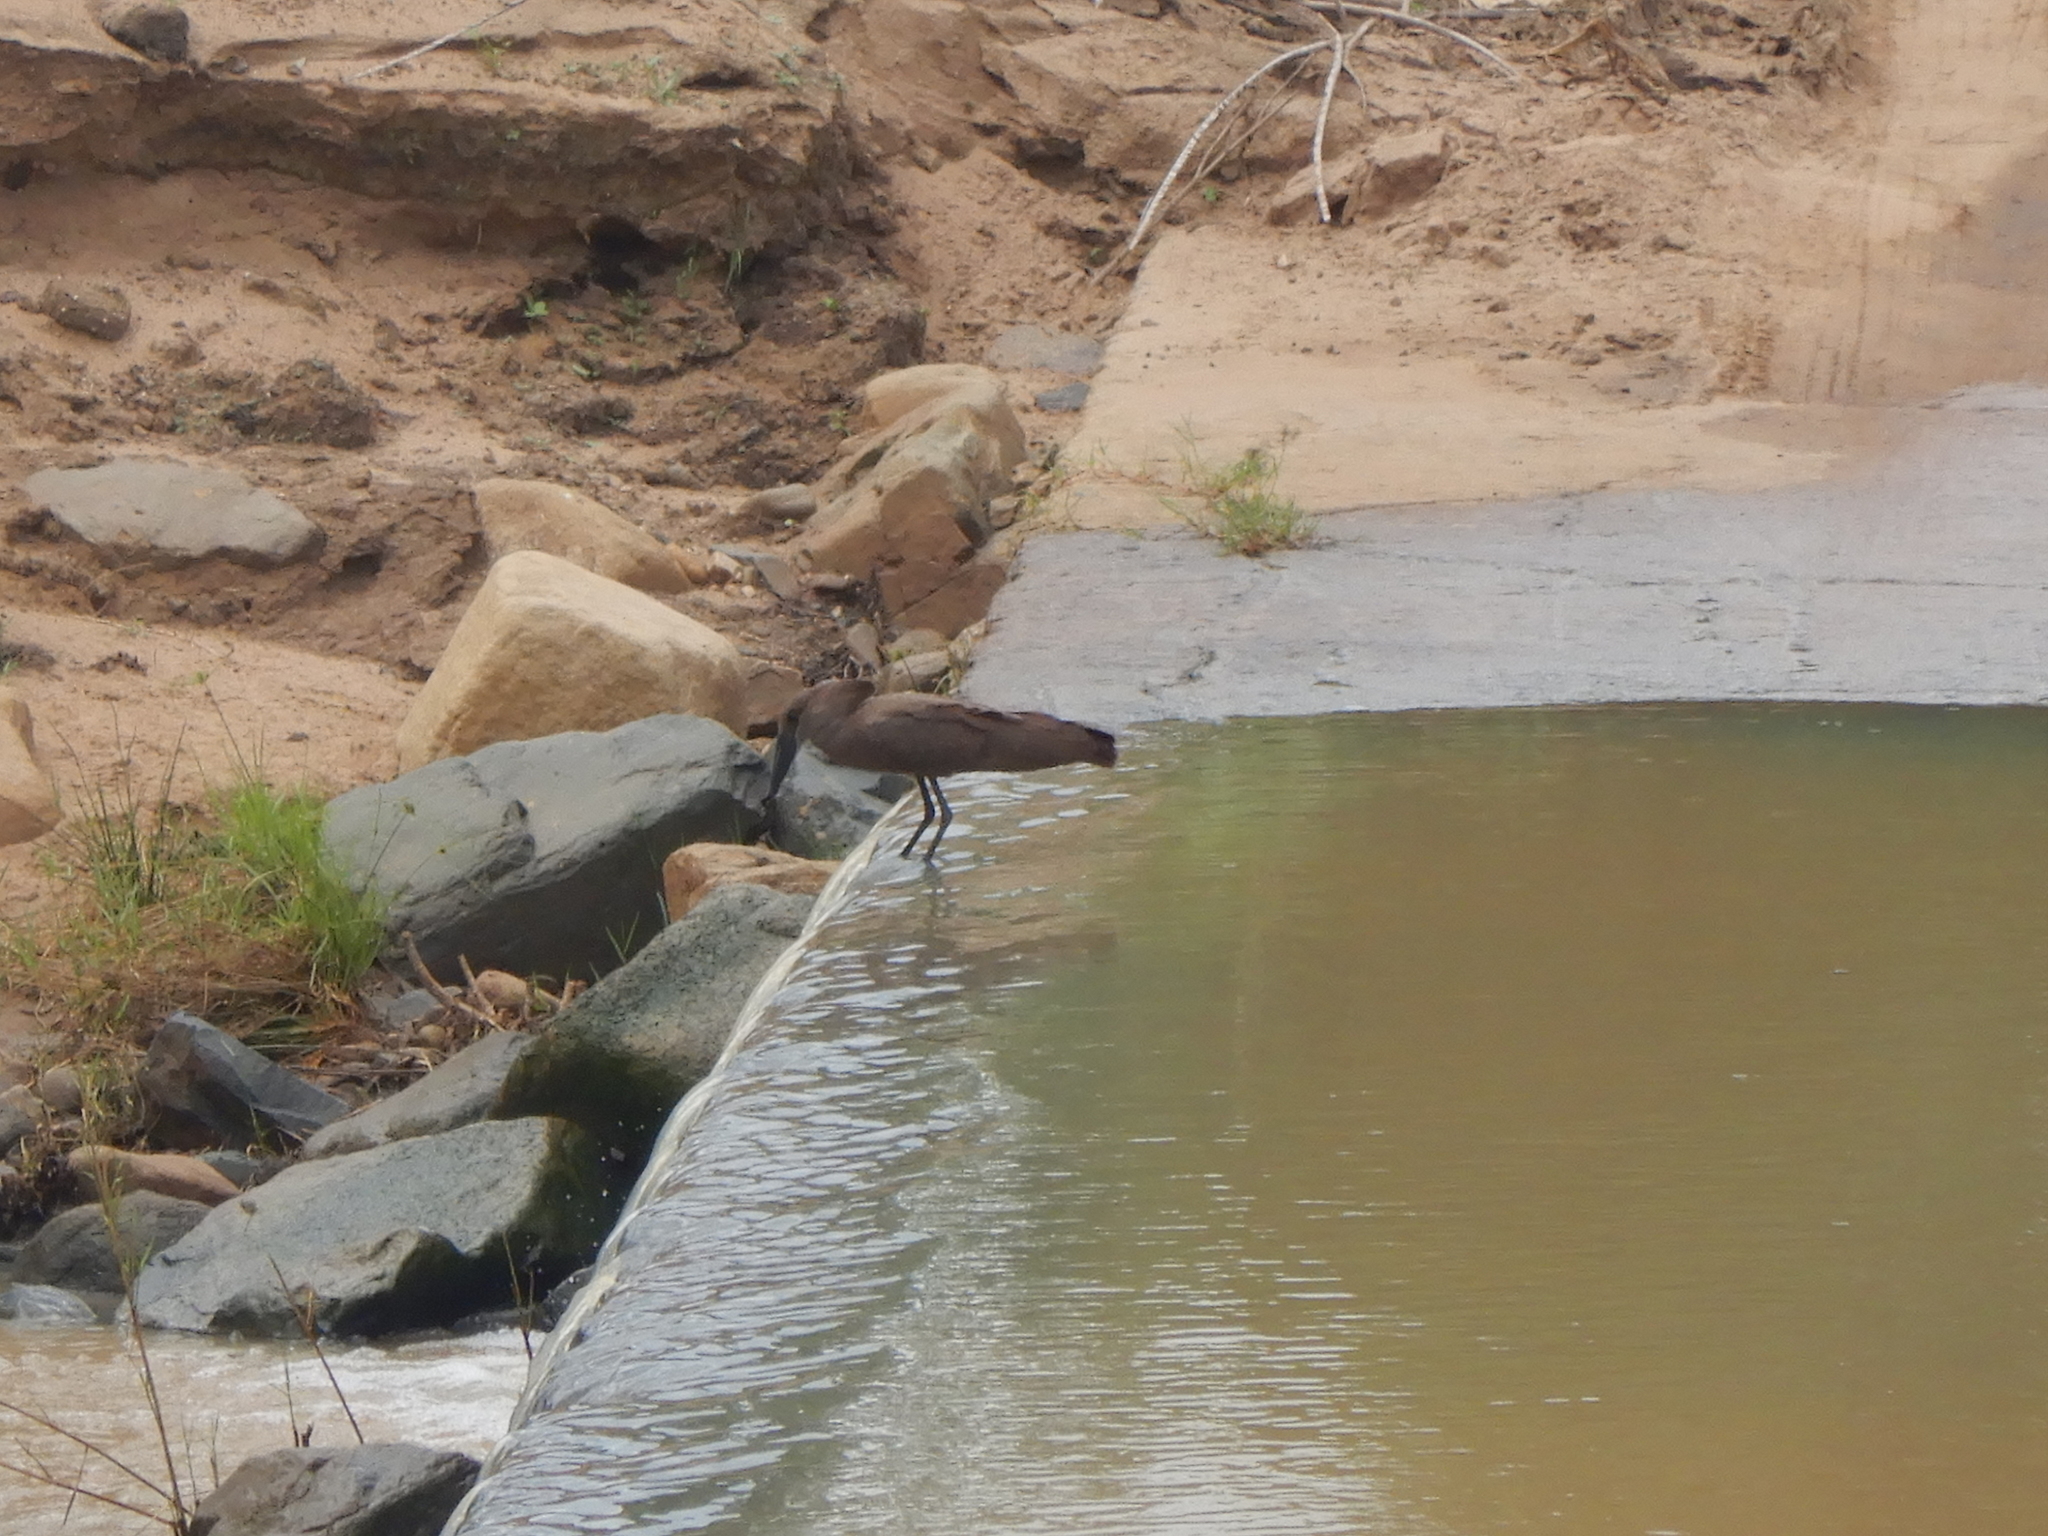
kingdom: Animalia
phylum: Chordata
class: Aves
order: Pelecaniformes
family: Scopidae
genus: Scopus
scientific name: Scopus umbretta
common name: Hamerkop
